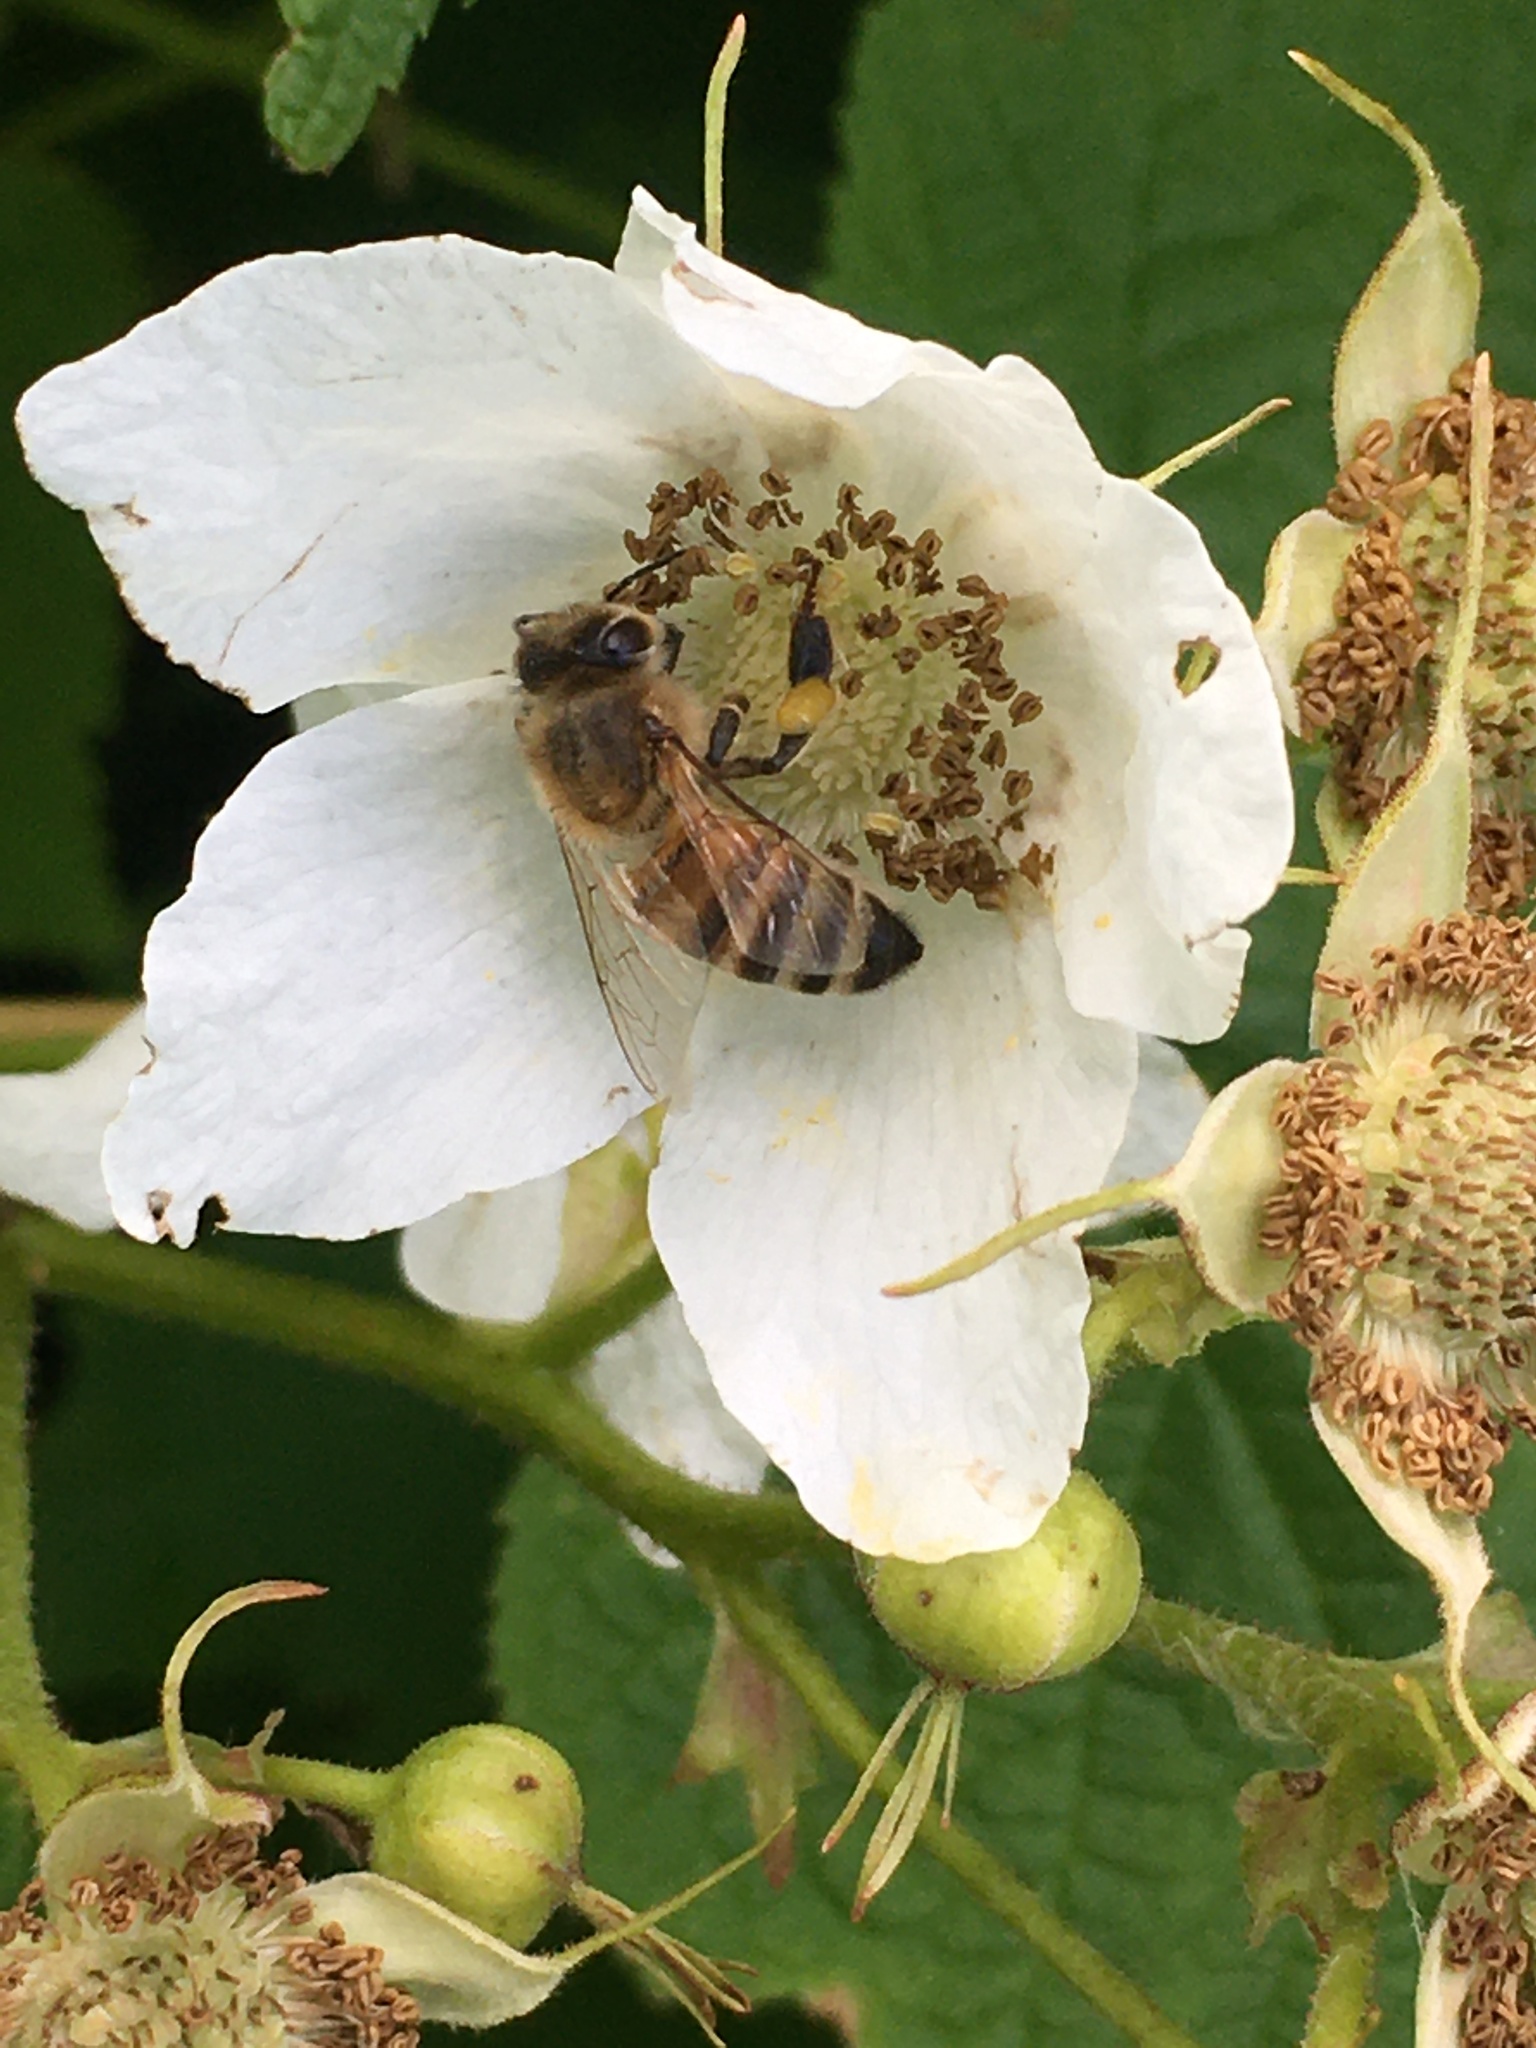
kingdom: Animalia
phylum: Arthropoda
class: Insecta
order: Hymenoptera
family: Apidae
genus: Apis
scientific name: Apis mellifera
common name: Honey bee
